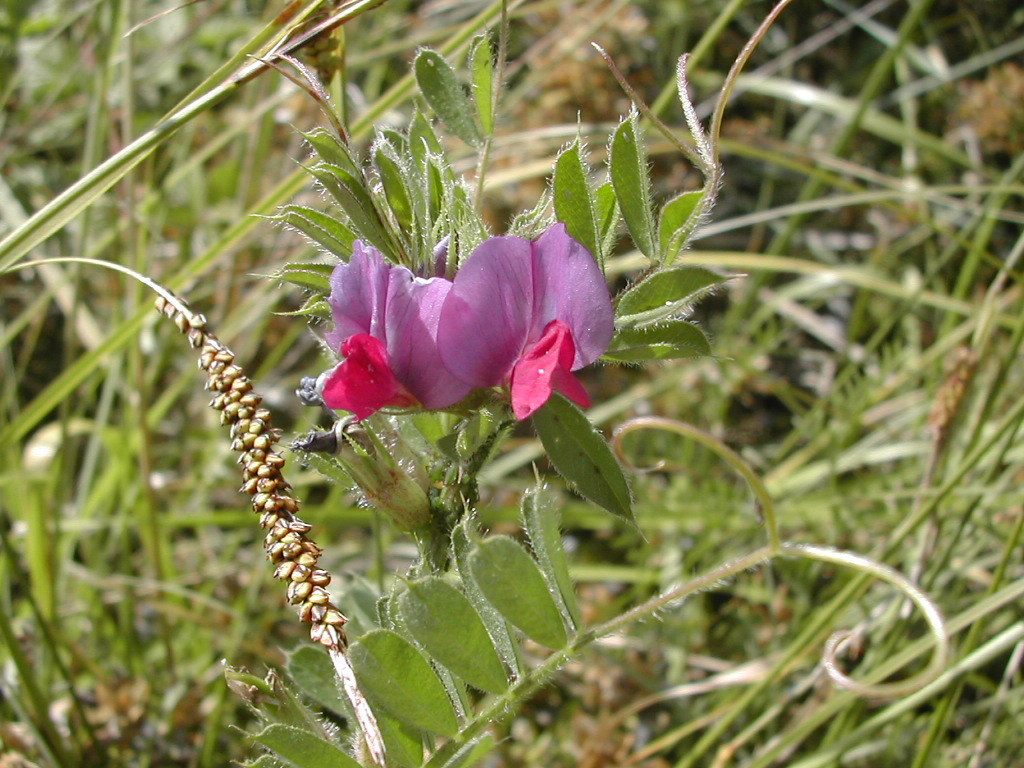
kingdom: Plantae
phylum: Tracheophyta
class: Magnoliopsida
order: Fabales
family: Fabaceae
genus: Vicia
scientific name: Vicia sativa
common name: Garden vetch
